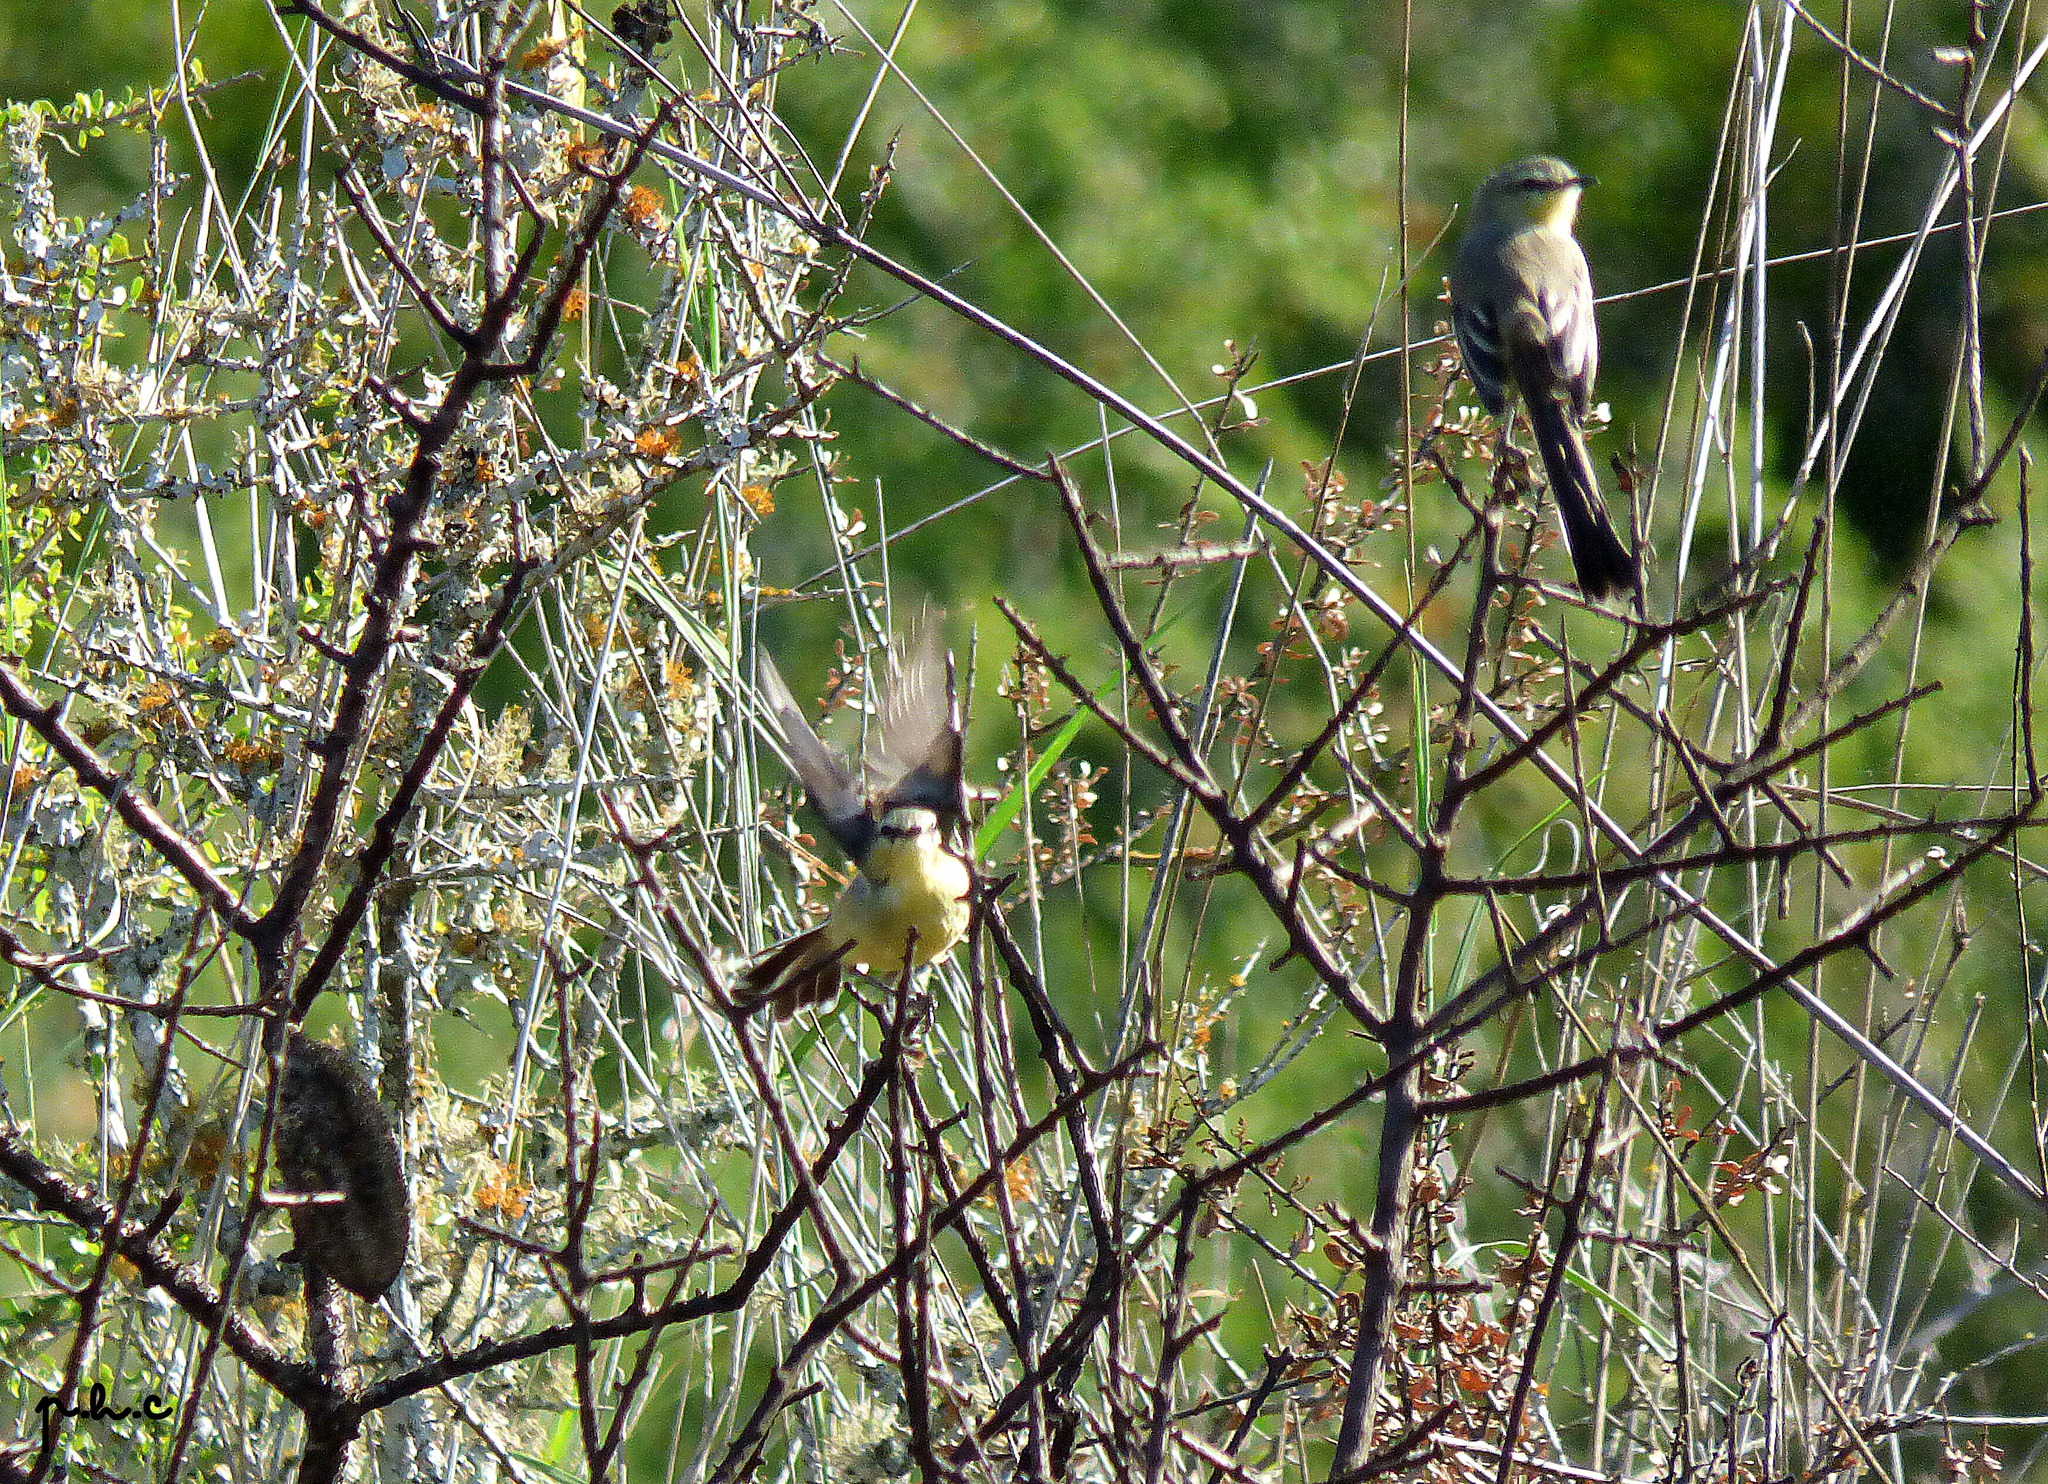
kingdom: Animalia
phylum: Chordata
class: Aves
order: Passeriformes
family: Tyrannidae
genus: Stigmatura
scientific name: Stigmatura budytoides
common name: Greater wagtail-tyrant
